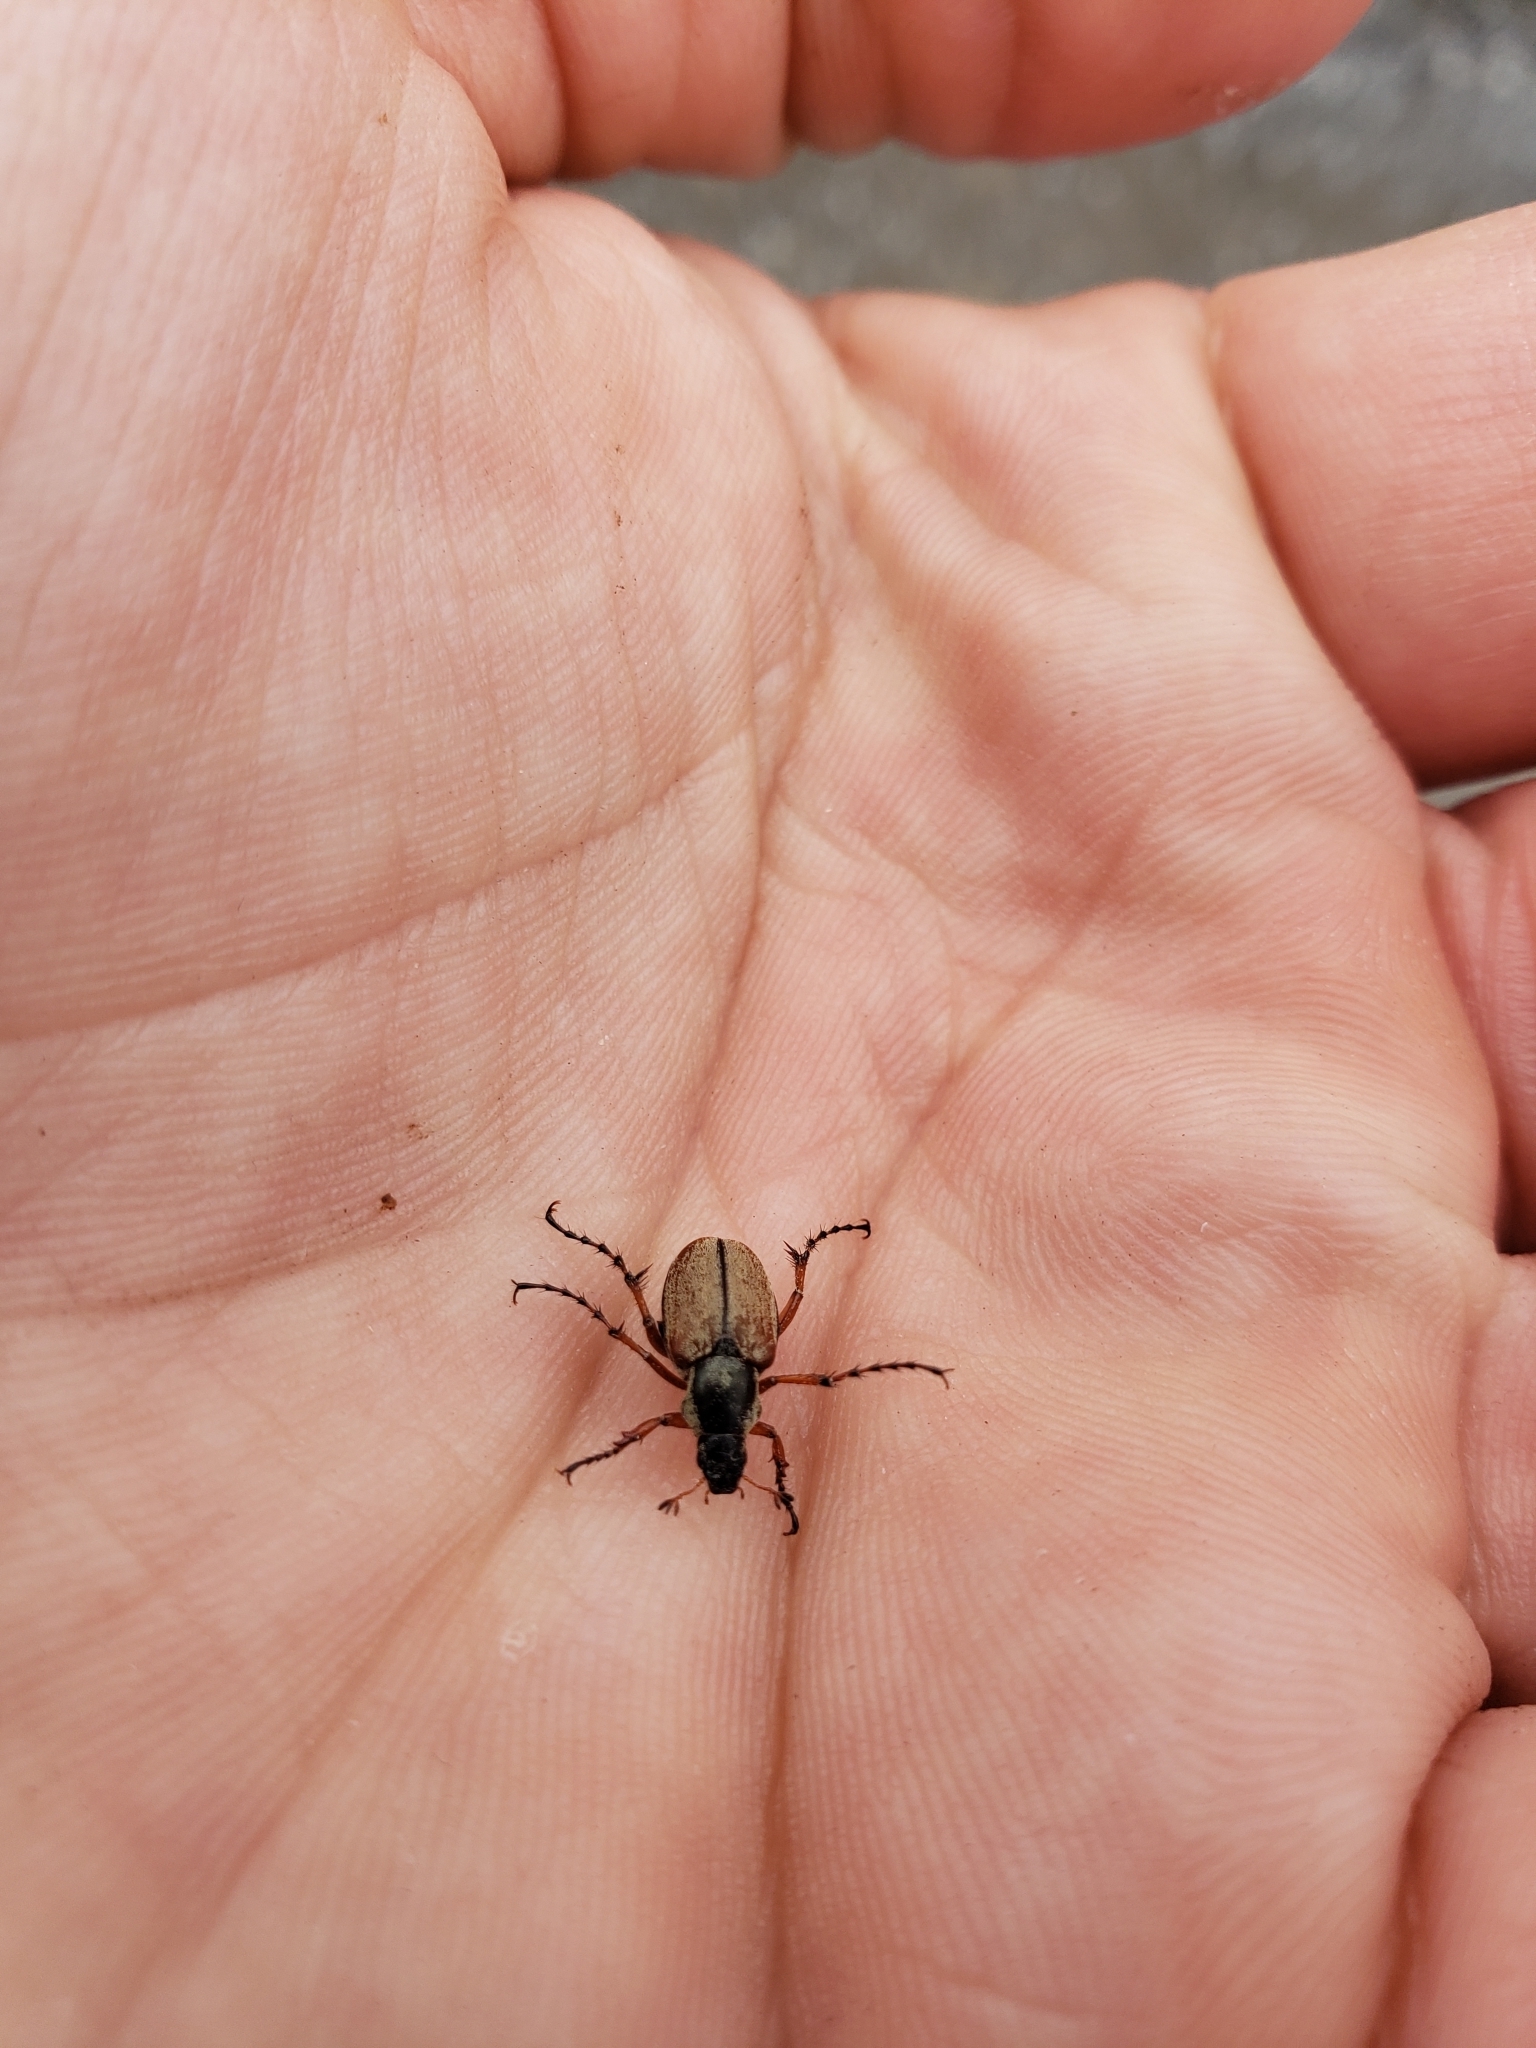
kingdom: Animalia
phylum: Arthropoda
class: Insecta
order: Coleoptera
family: Scarabaeidae
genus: Macrodactylus
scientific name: Macrodactylus subspinosus
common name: American rose chafer
